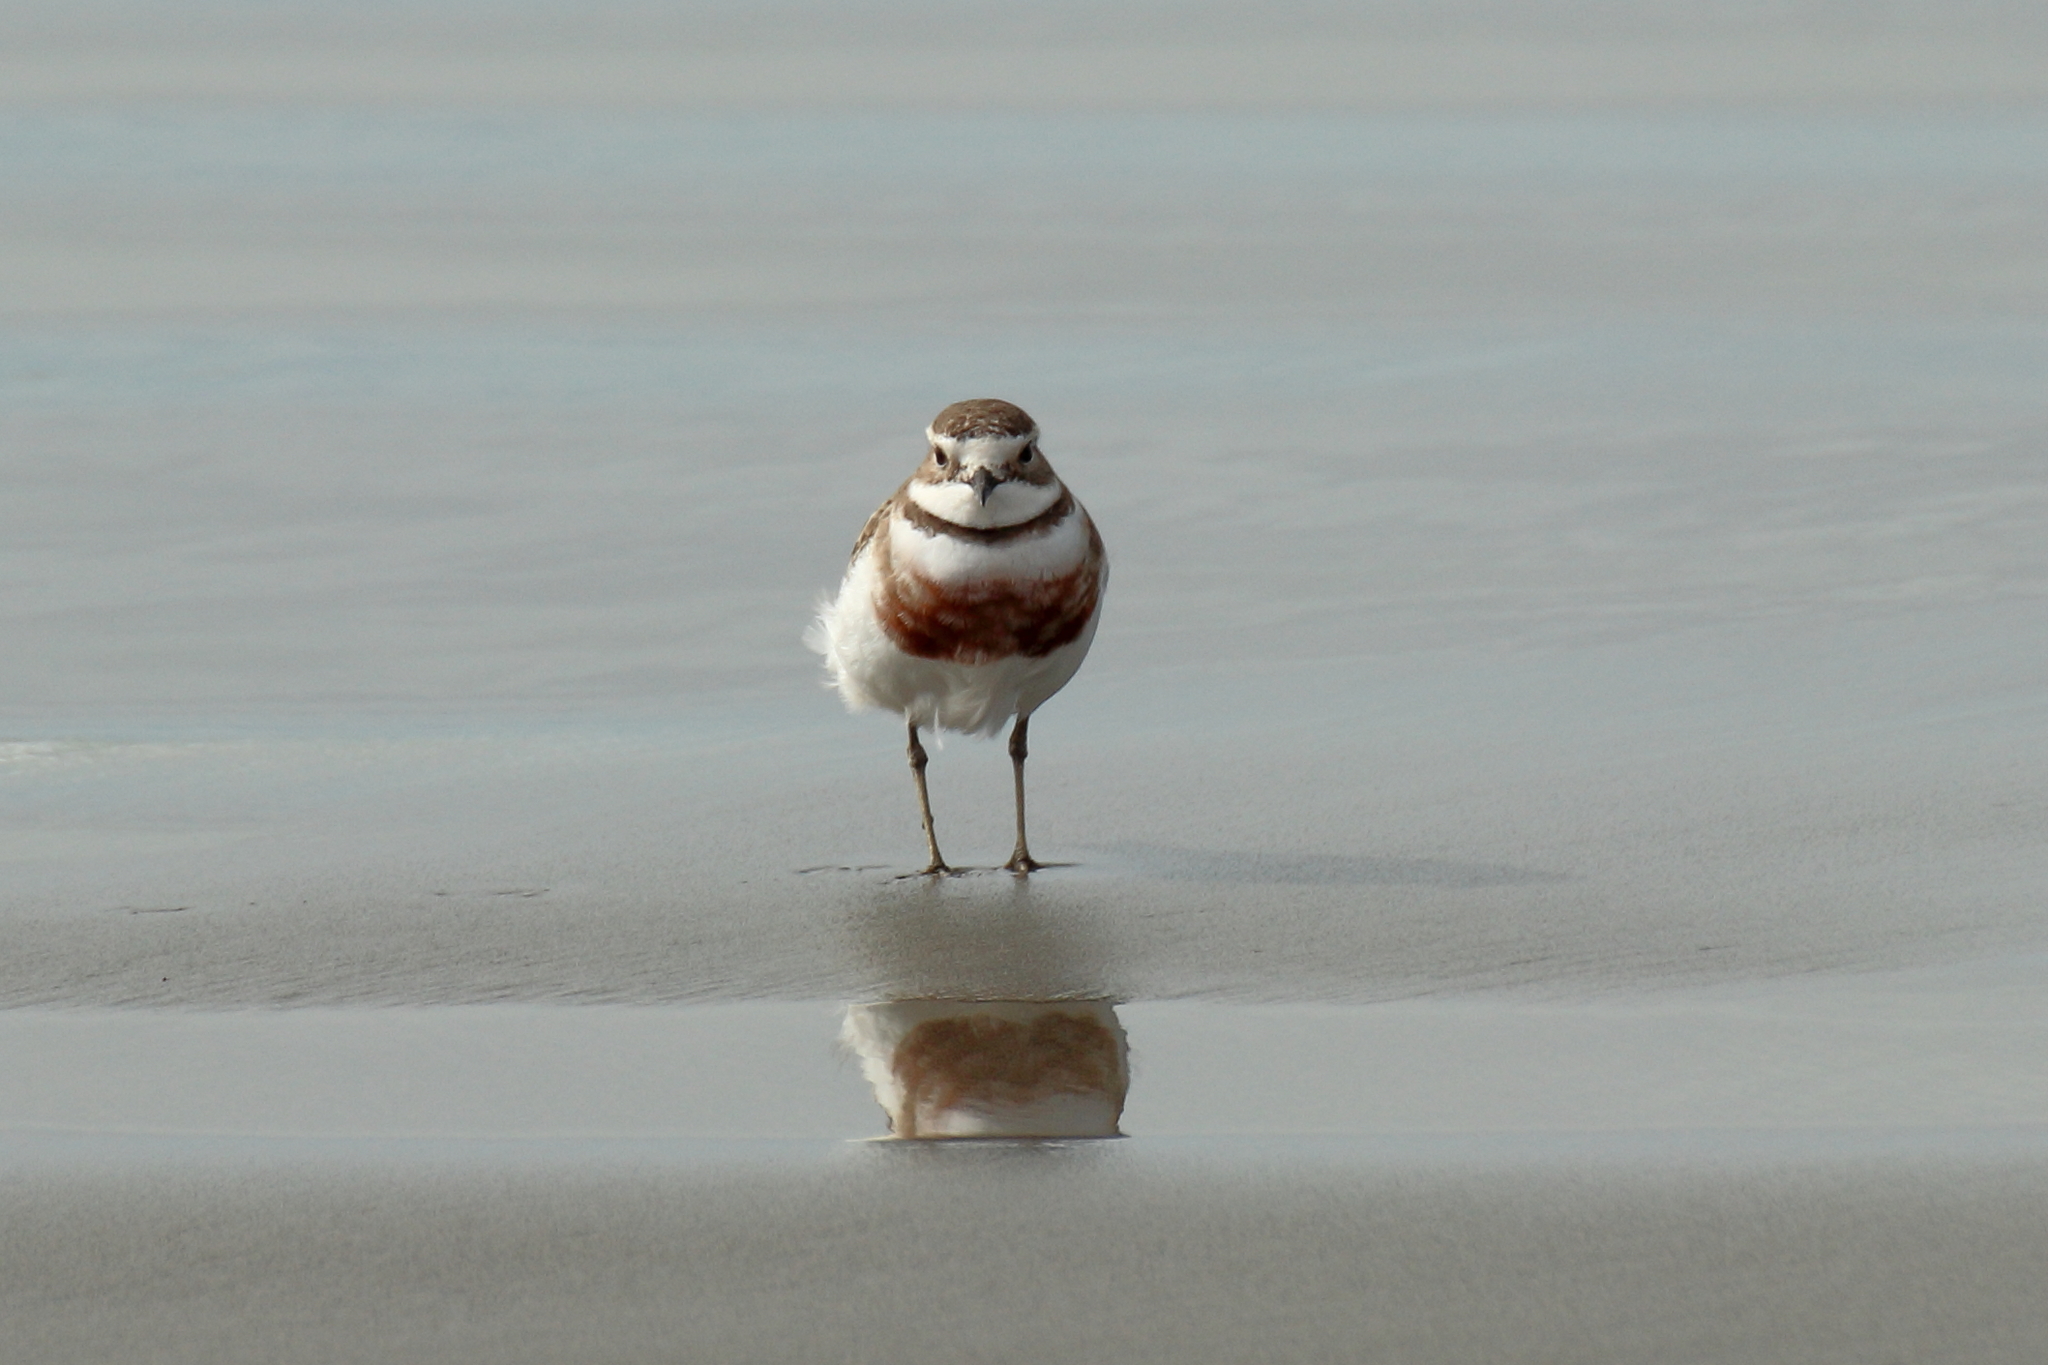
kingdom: Animalia
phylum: Chordata
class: Aves
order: Charadriiformes
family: Charadriidae
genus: Anarhynchus
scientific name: Anarhynchus
